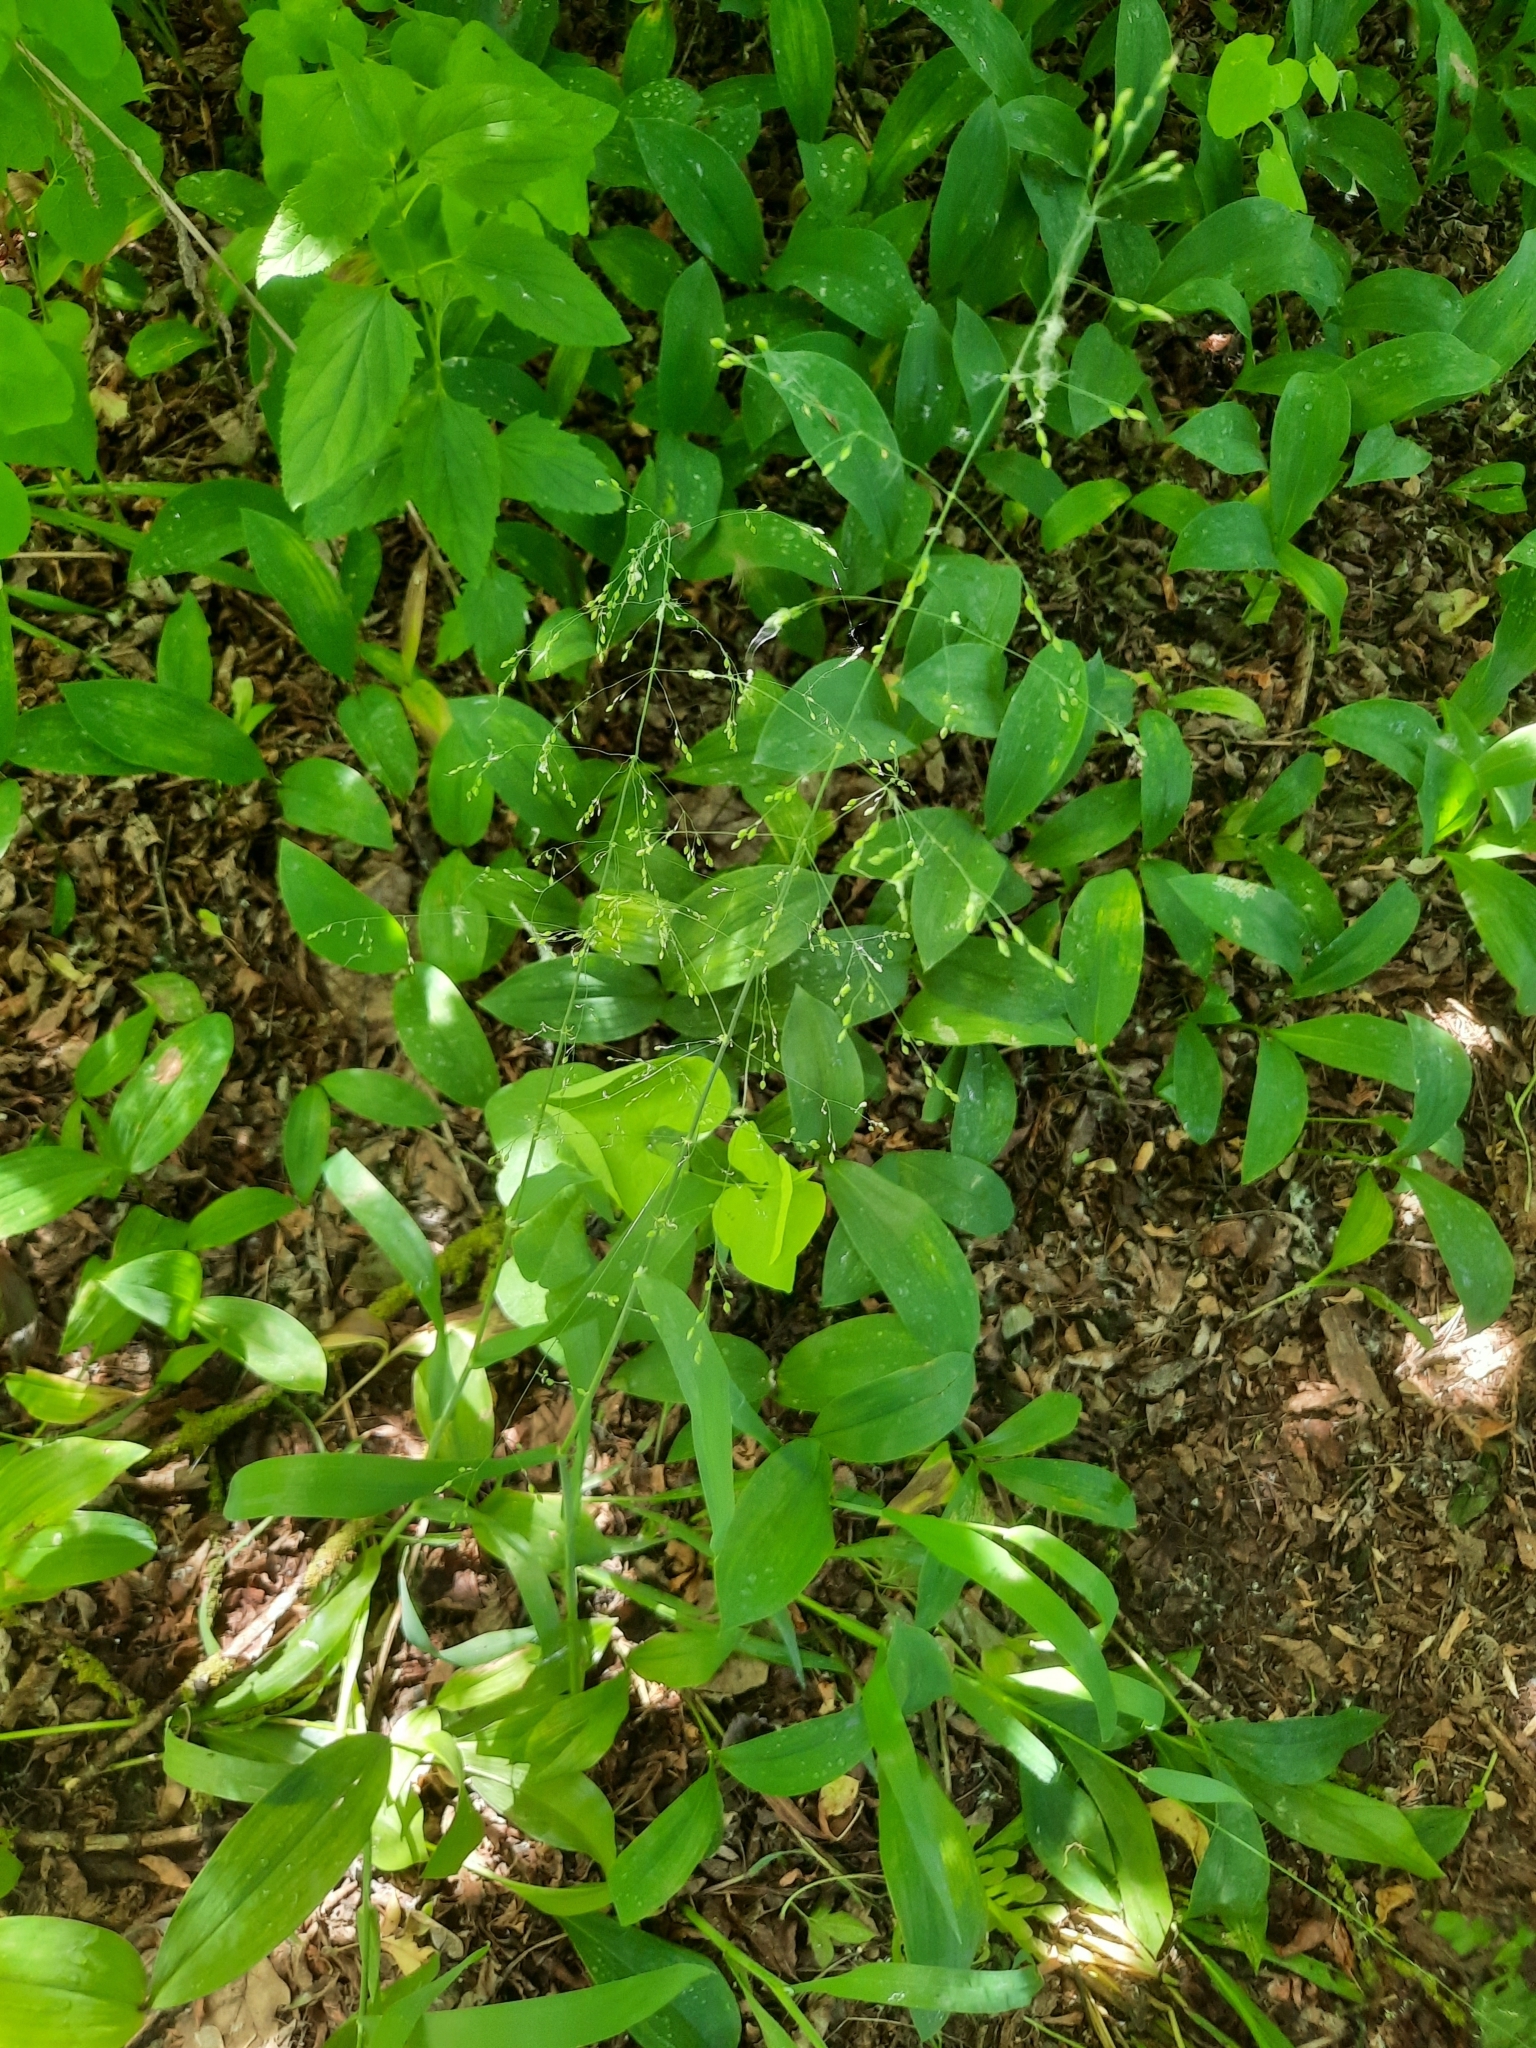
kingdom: Plantae
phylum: Tracheophyta
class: Liliopsida
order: Poales
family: Poaceae
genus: Milium
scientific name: Milium effusum
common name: Wood millet
